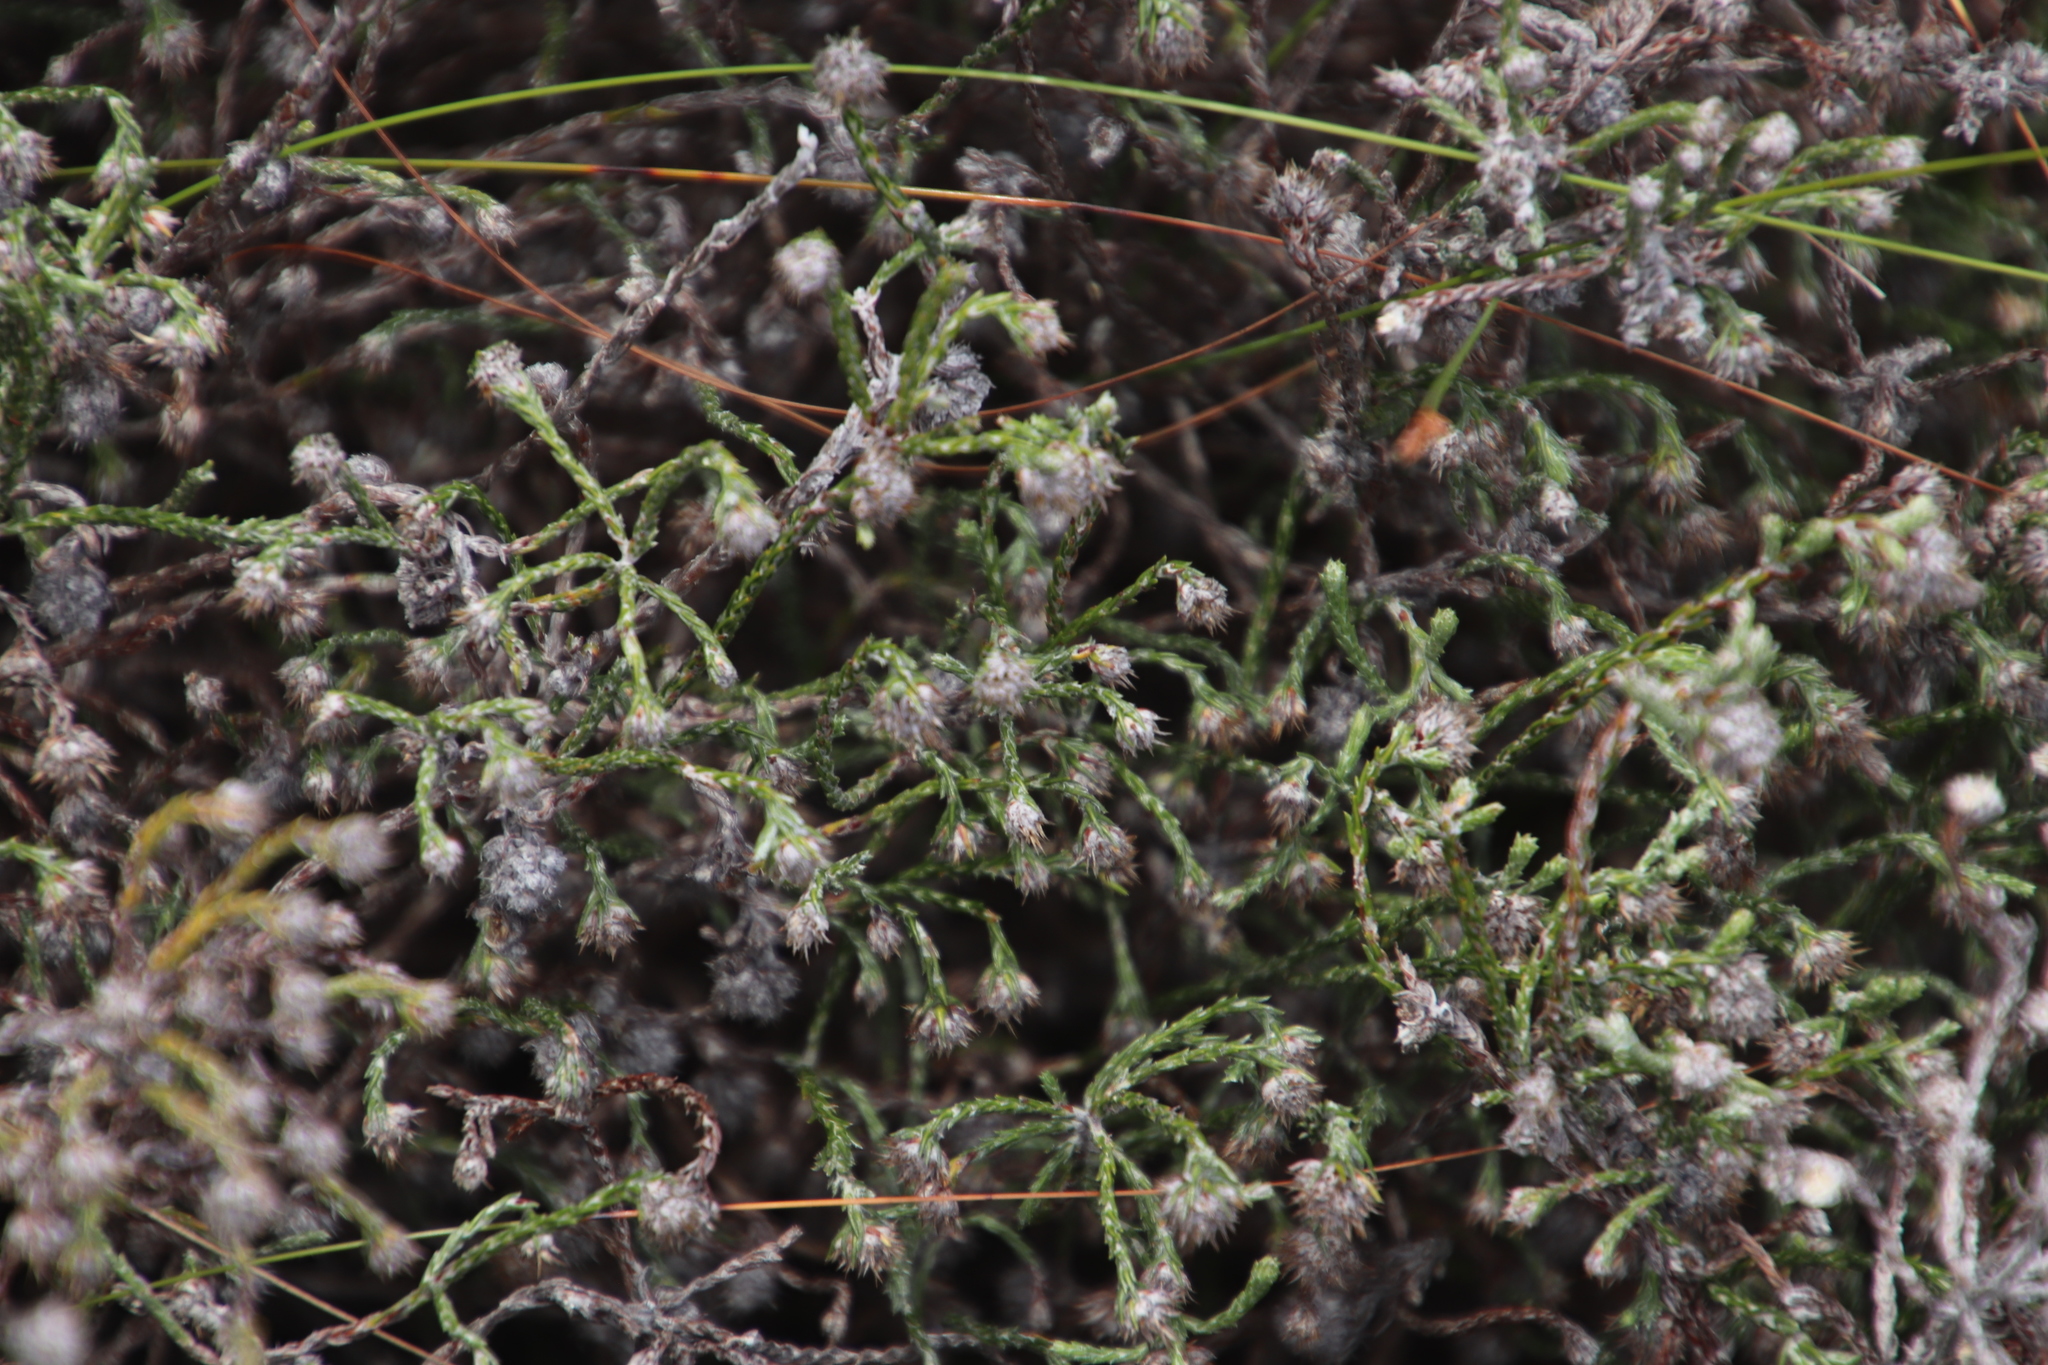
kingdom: Plantae
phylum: Tracheophyta
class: Magnoliopsida
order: Asterales
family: Asteraceae
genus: Seriphium
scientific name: Seriphium incanum
